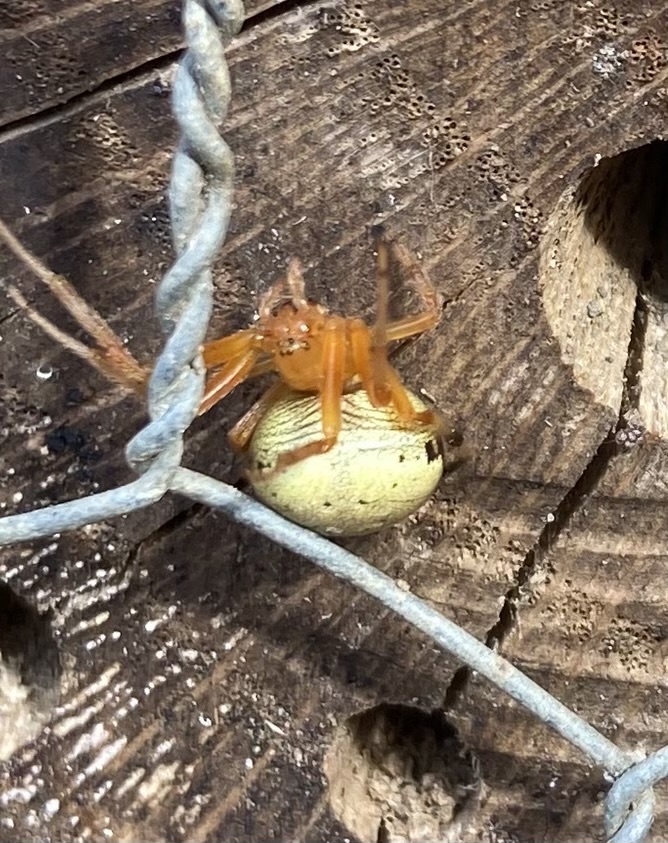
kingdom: Animalia
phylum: Arthropoda
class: Arachnida
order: Araneae
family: Araneidae
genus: Araneus
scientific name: Araneus thaddeus
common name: Lattice orbweaver
